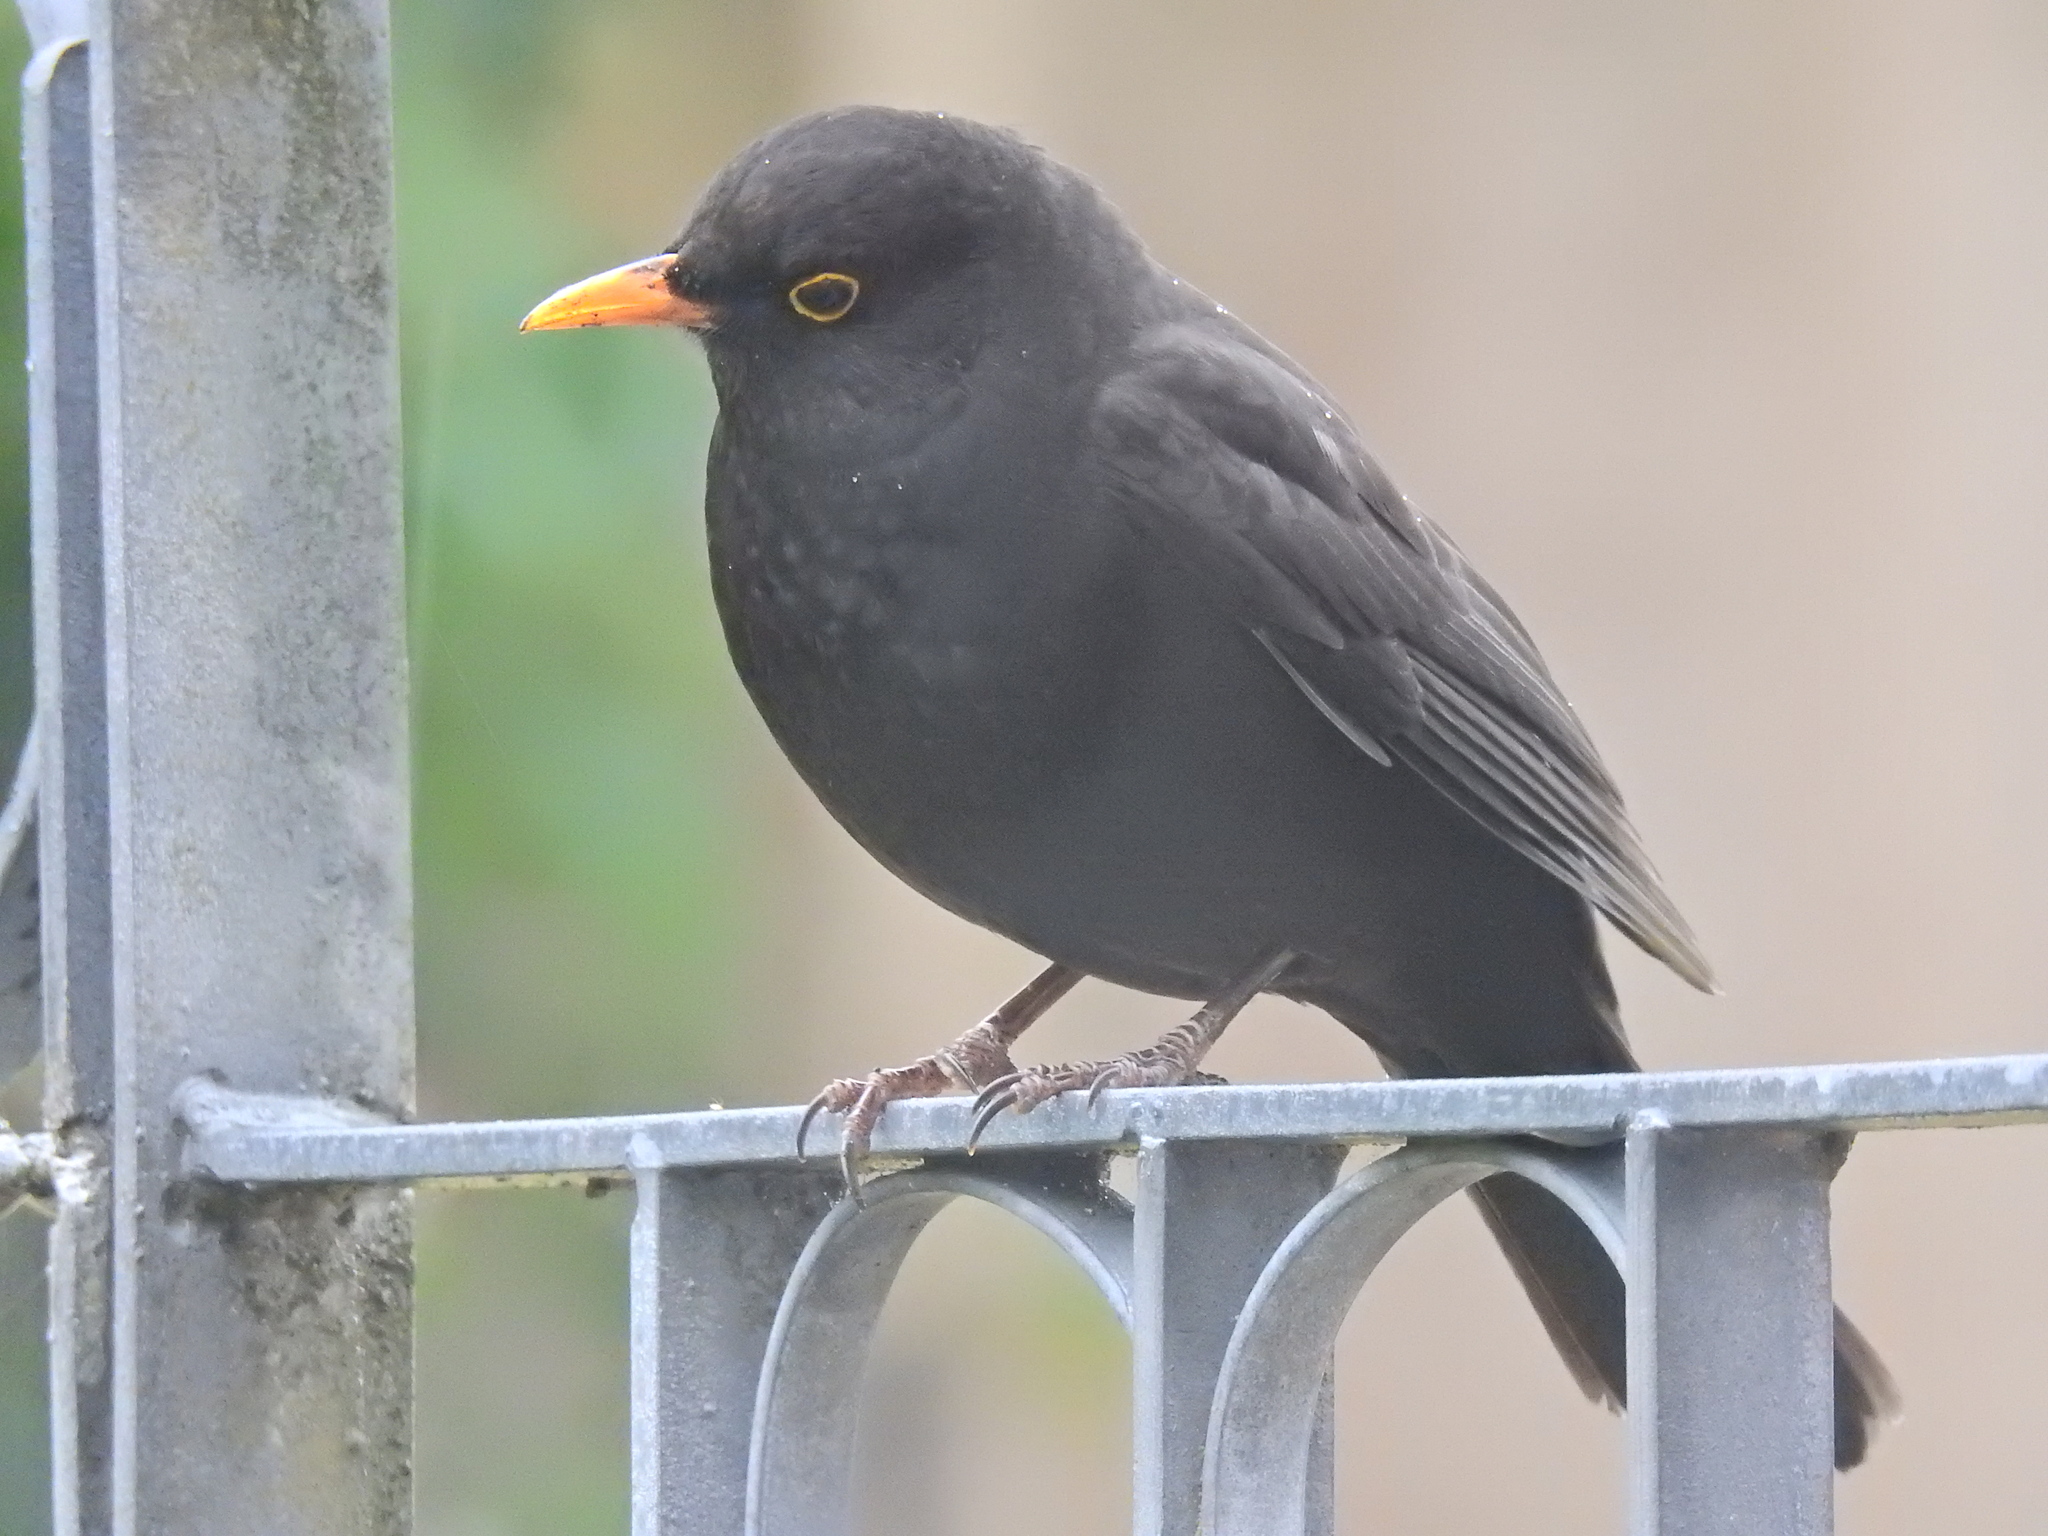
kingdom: Animalia
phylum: Chordata
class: Aves
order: Passeriformes
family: Turdidae
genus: Turdus
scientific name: Turdus merula
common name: Common blackbird
